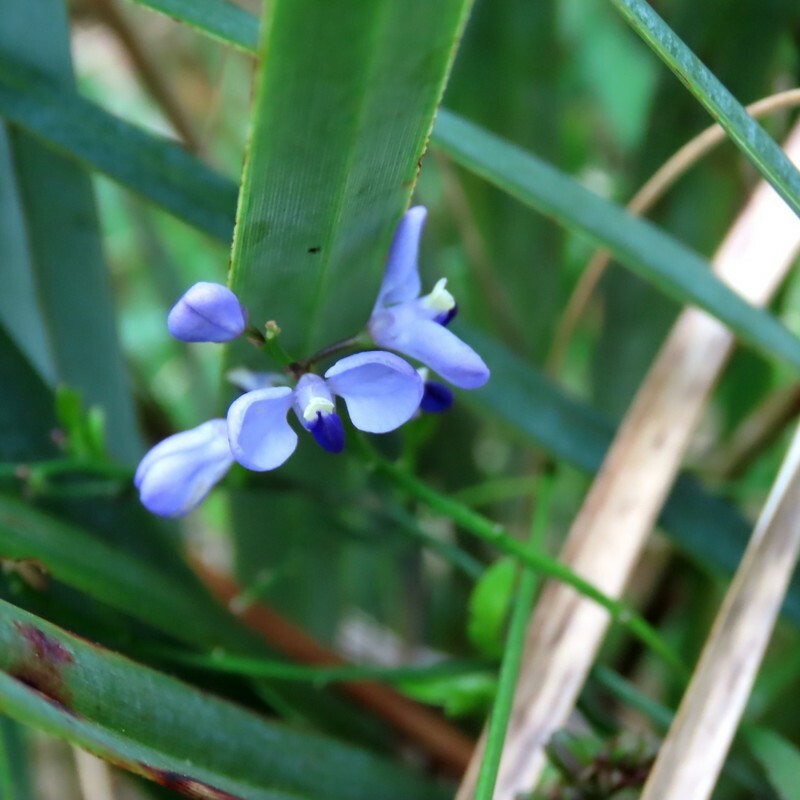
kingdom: Plantae
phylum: Tracheophyta
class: Magnoliopsida
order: Fabales
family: Polygalaceae
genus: Comesperma
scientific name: Comesperma volubile
